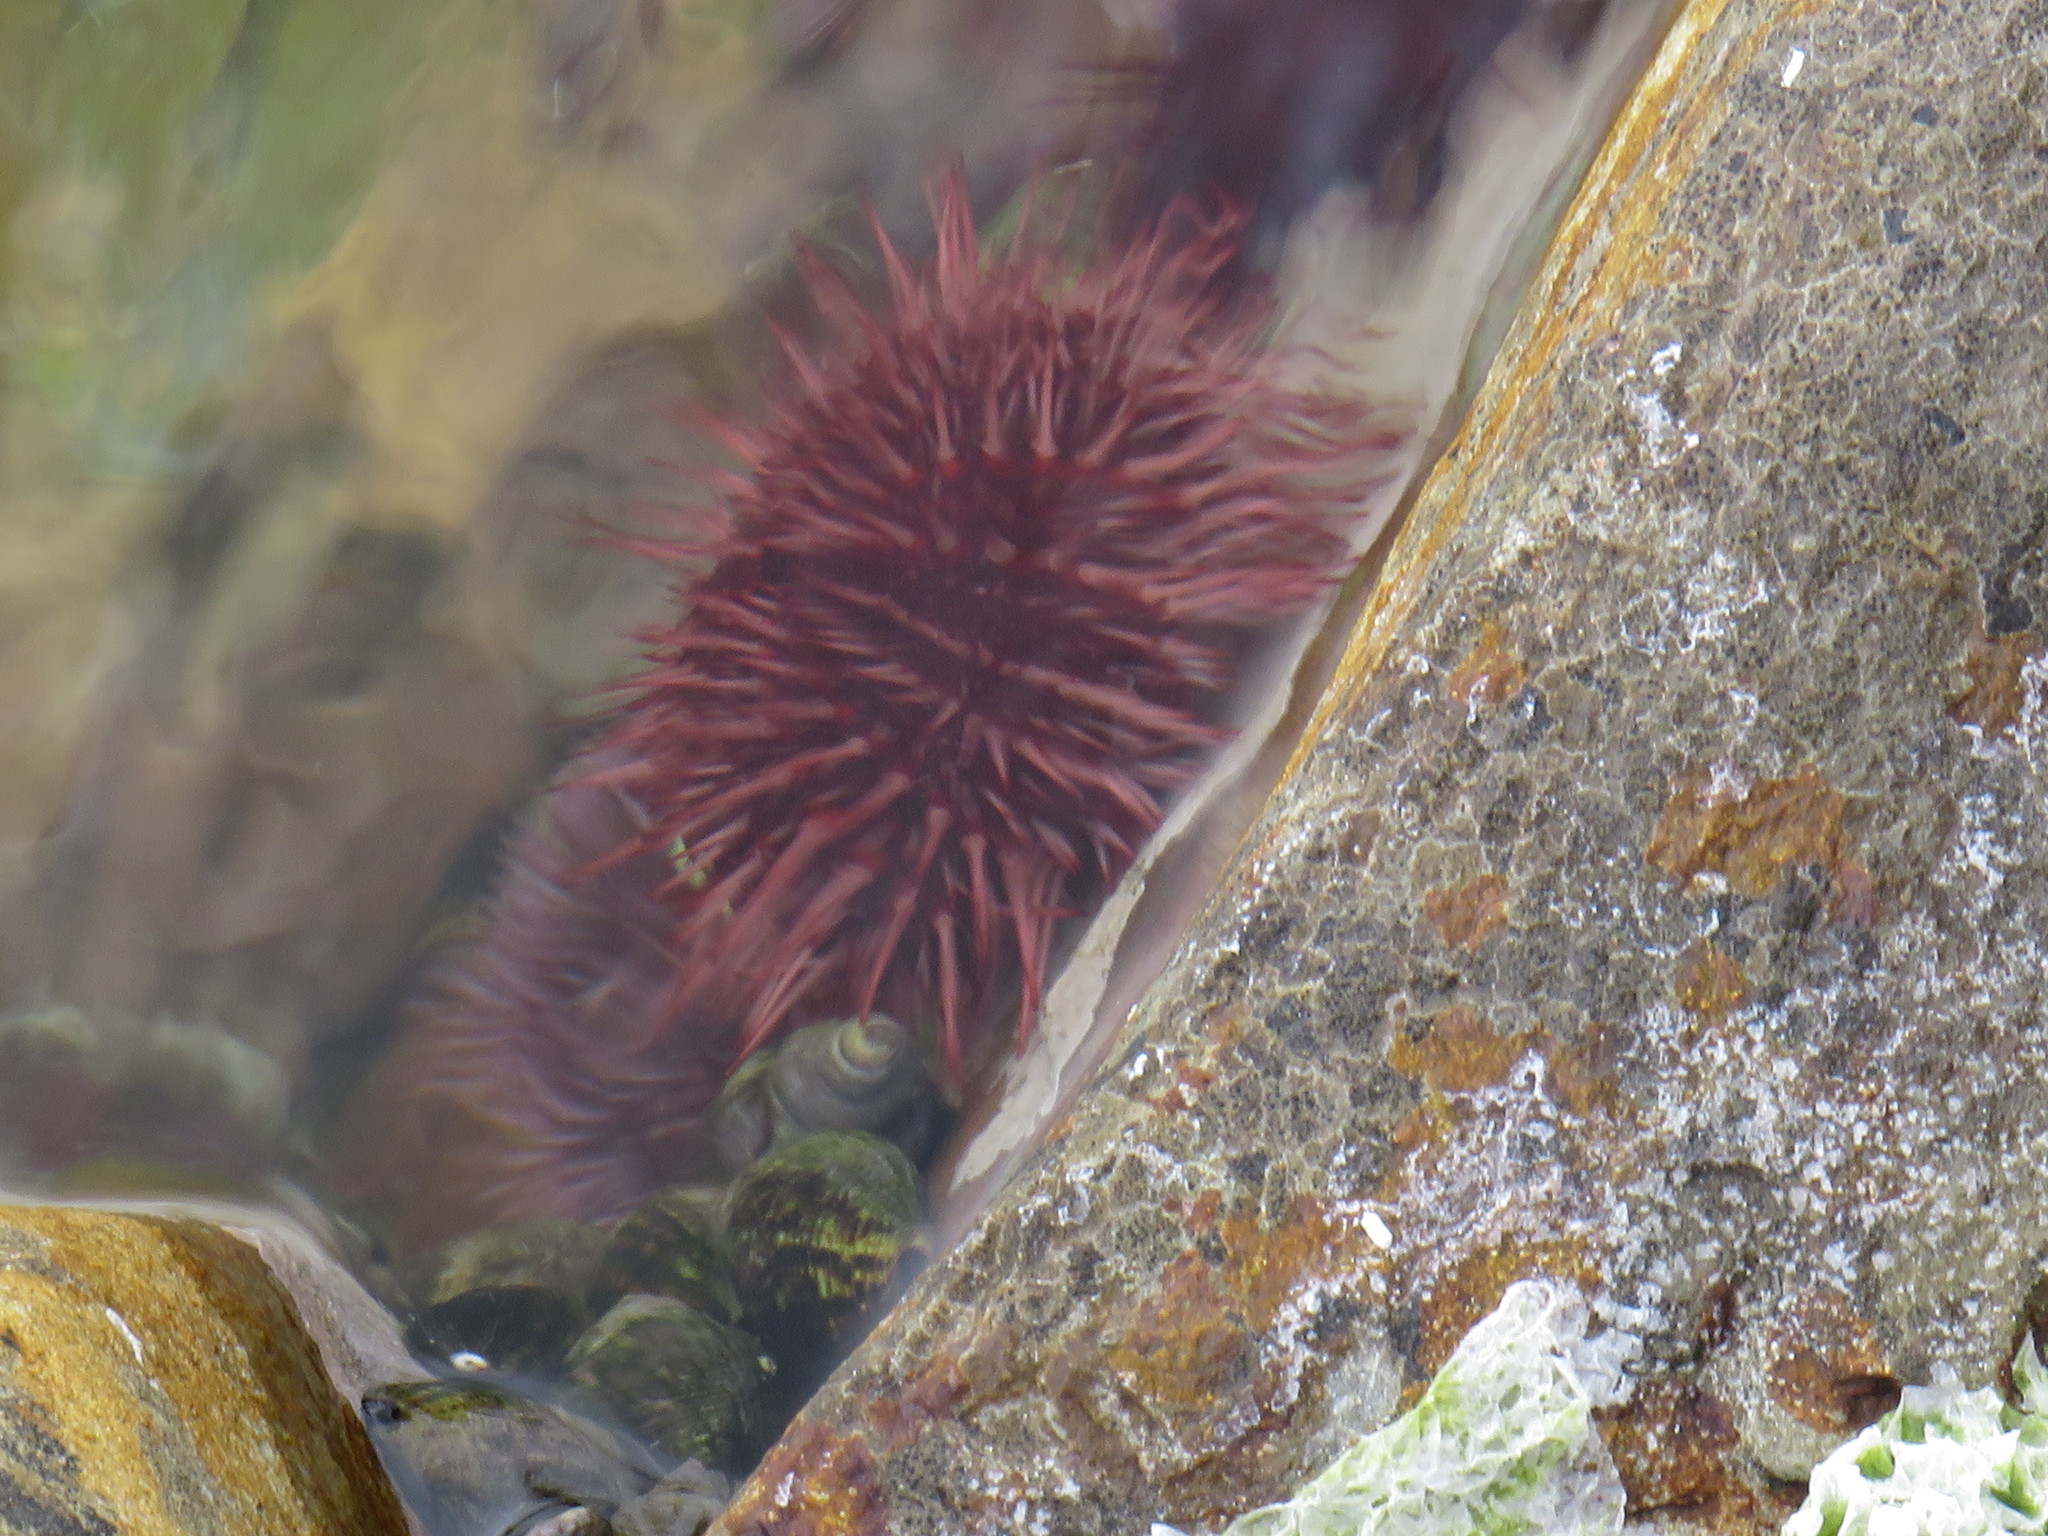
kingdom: Animalia
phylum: Echinodermata
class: Echinoidea
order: Camarodonta
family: Parechinidae
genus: Parechinus
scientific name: Parechinus angulosus
